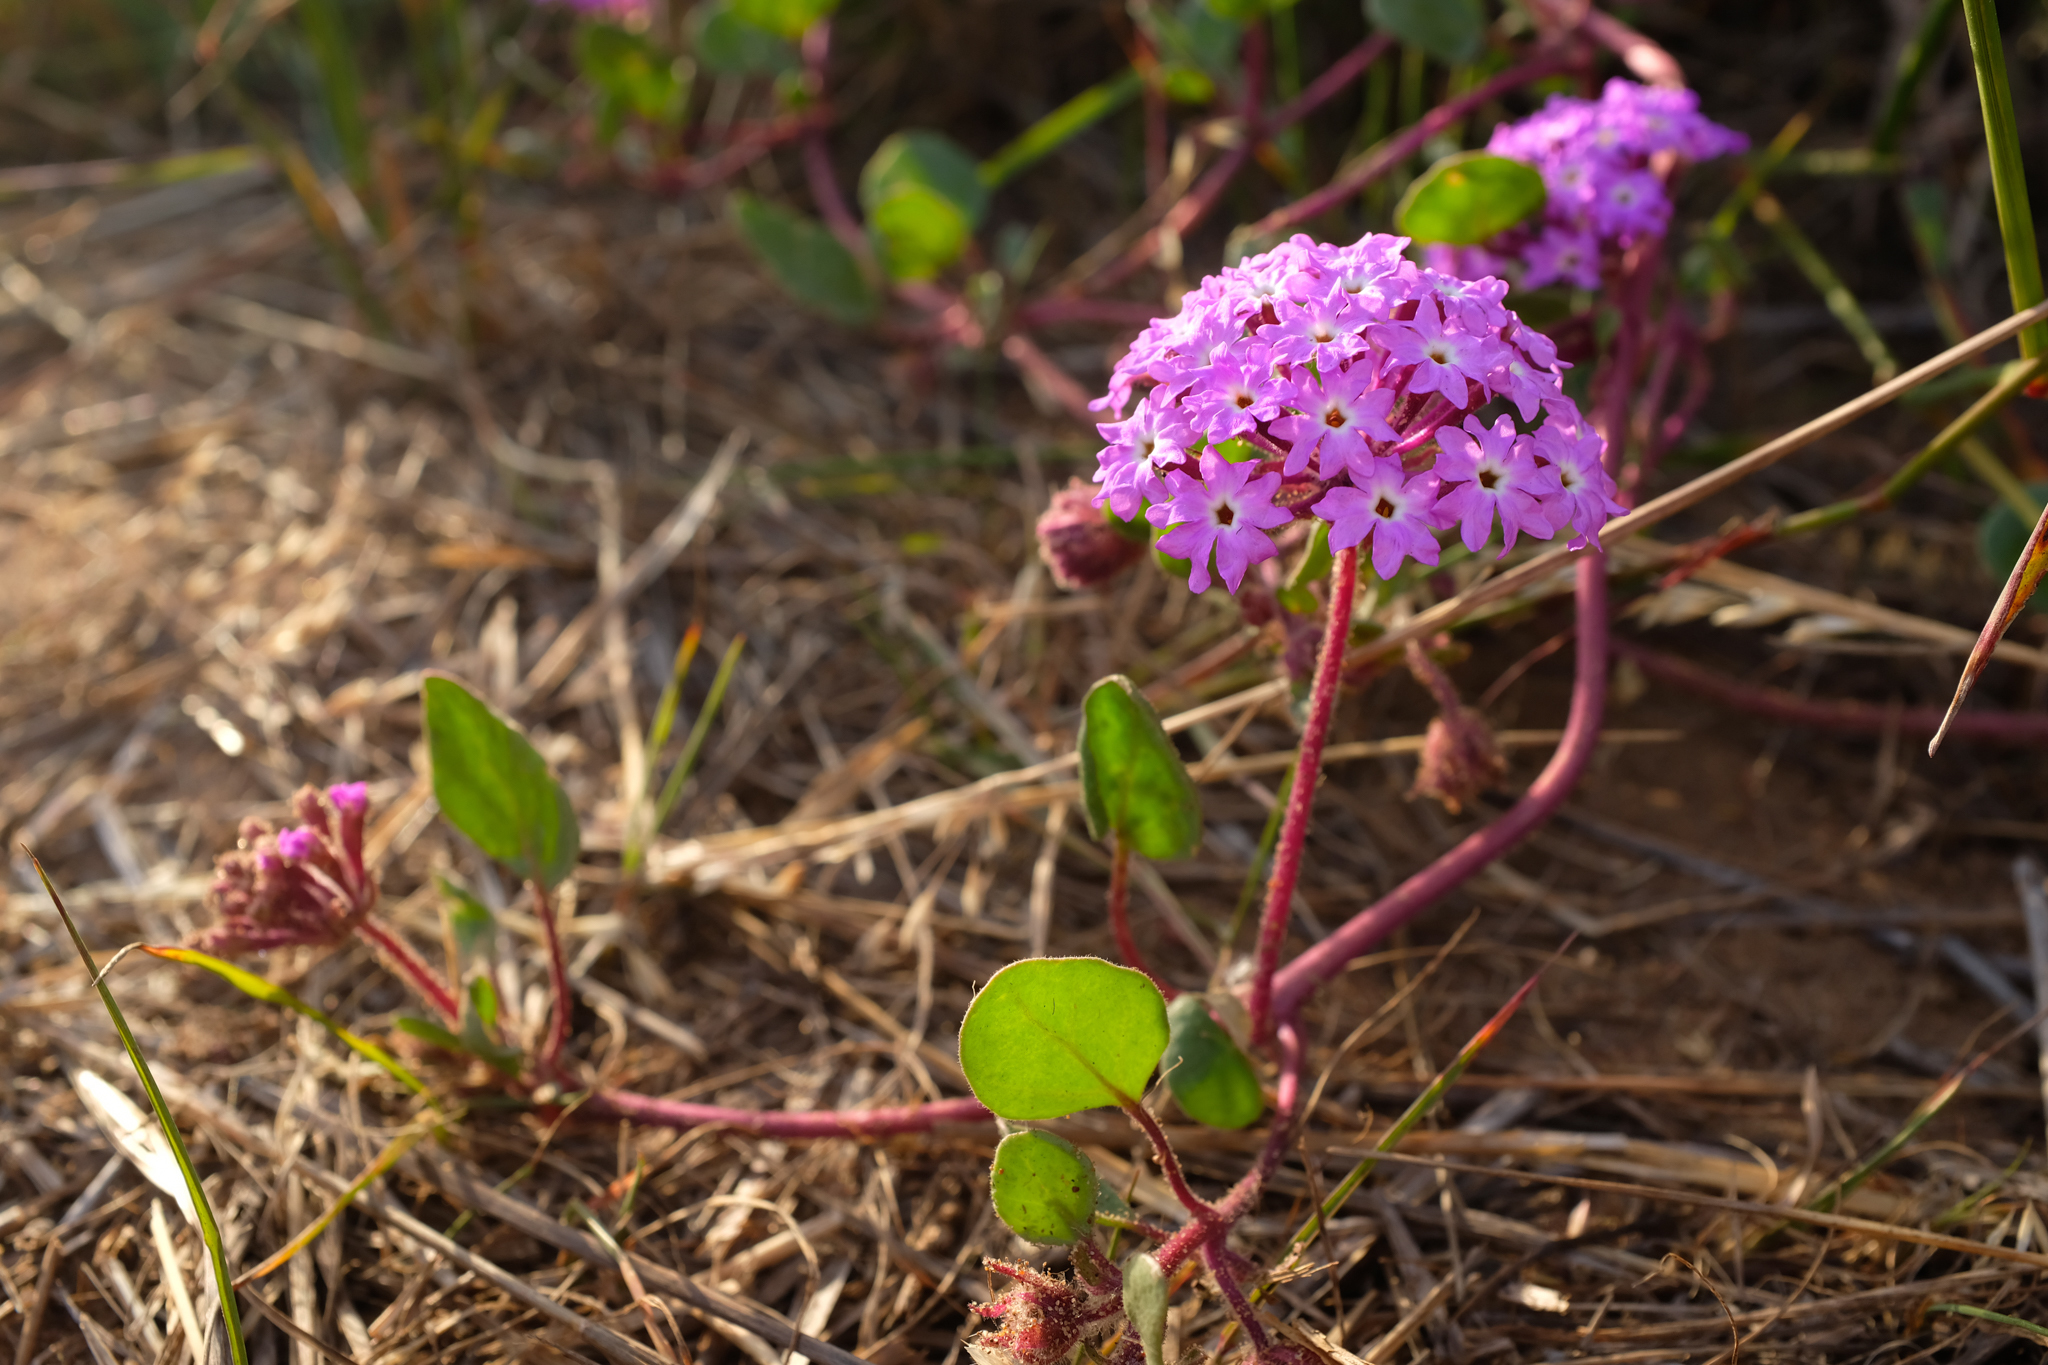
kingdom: Plantae
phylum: Tracheophyta
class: Magnoliopsida
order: Caryophyllales
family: Nyctaginaceae
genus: Abronia
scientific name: Abronia umbellata
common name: Sand-verbena
